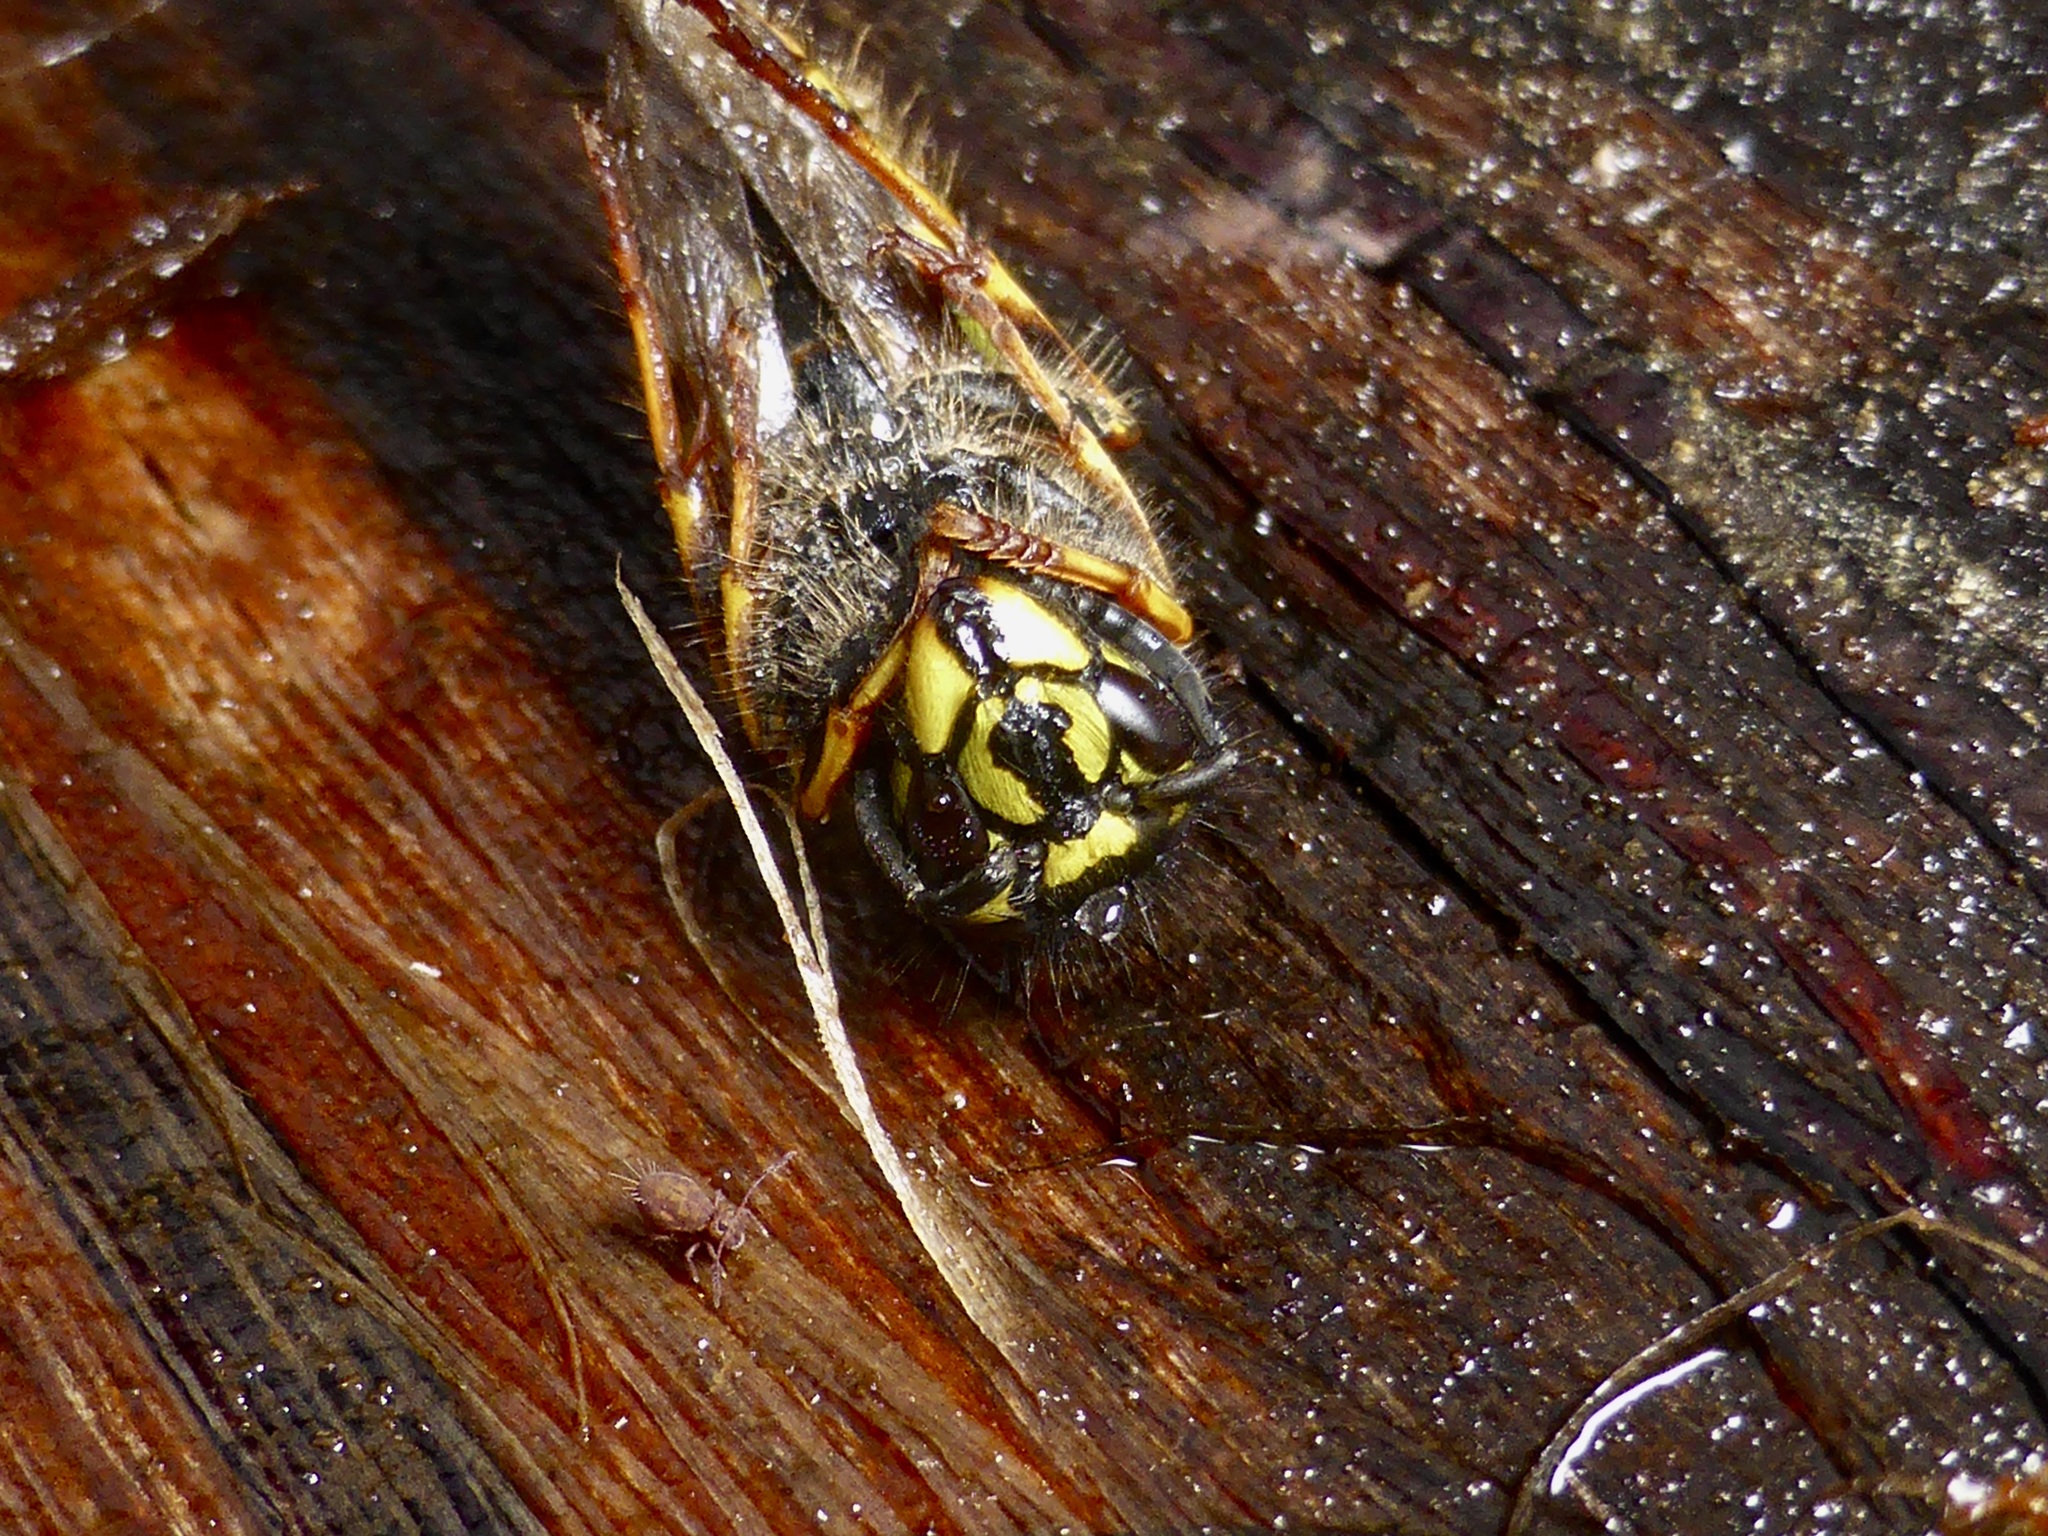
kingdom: Animalia
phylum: Arthropoda
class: Insecta
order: Hymenoptera
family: Vespidae
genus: Vespula
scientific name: Vespula vulgaris
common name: Common wasp
